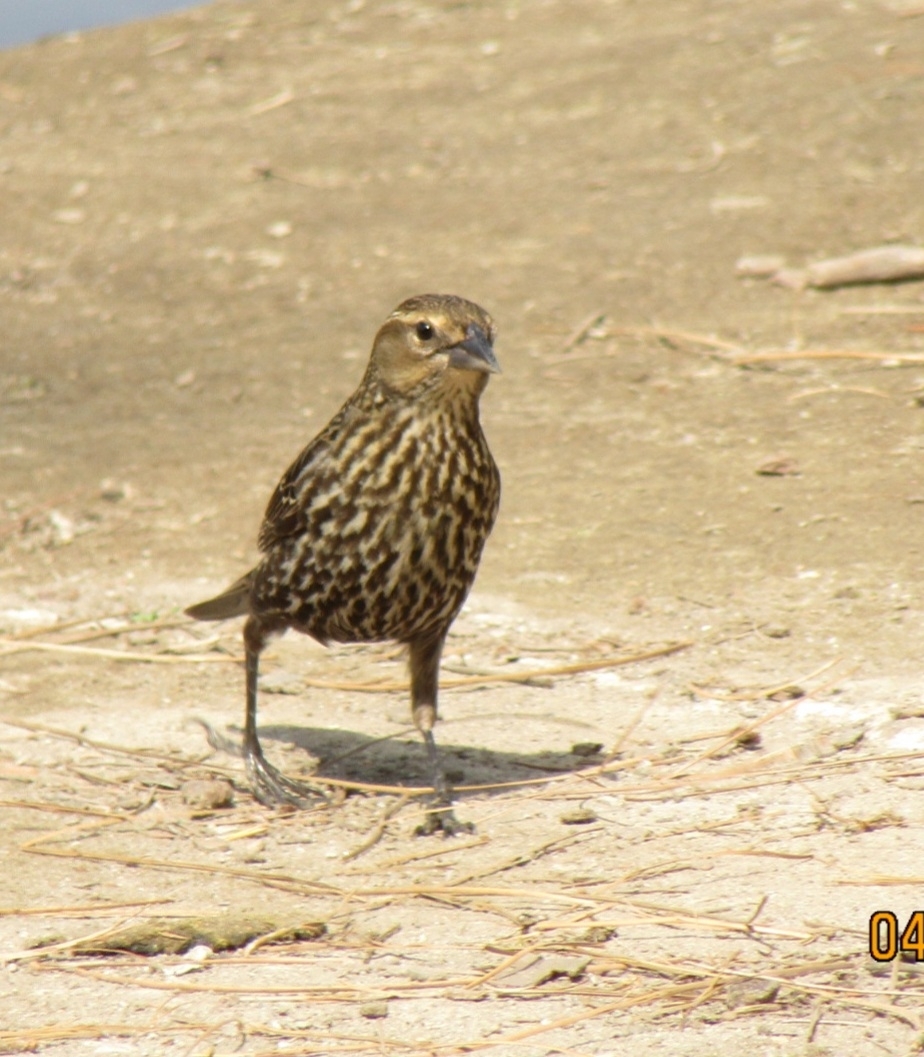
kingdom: Animalia
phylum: Chordata
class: Aves
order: Passeriformes
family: Icteridae
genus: Agelaius
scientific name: Agelaius phoeniceus
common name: Red-winged blackbird
